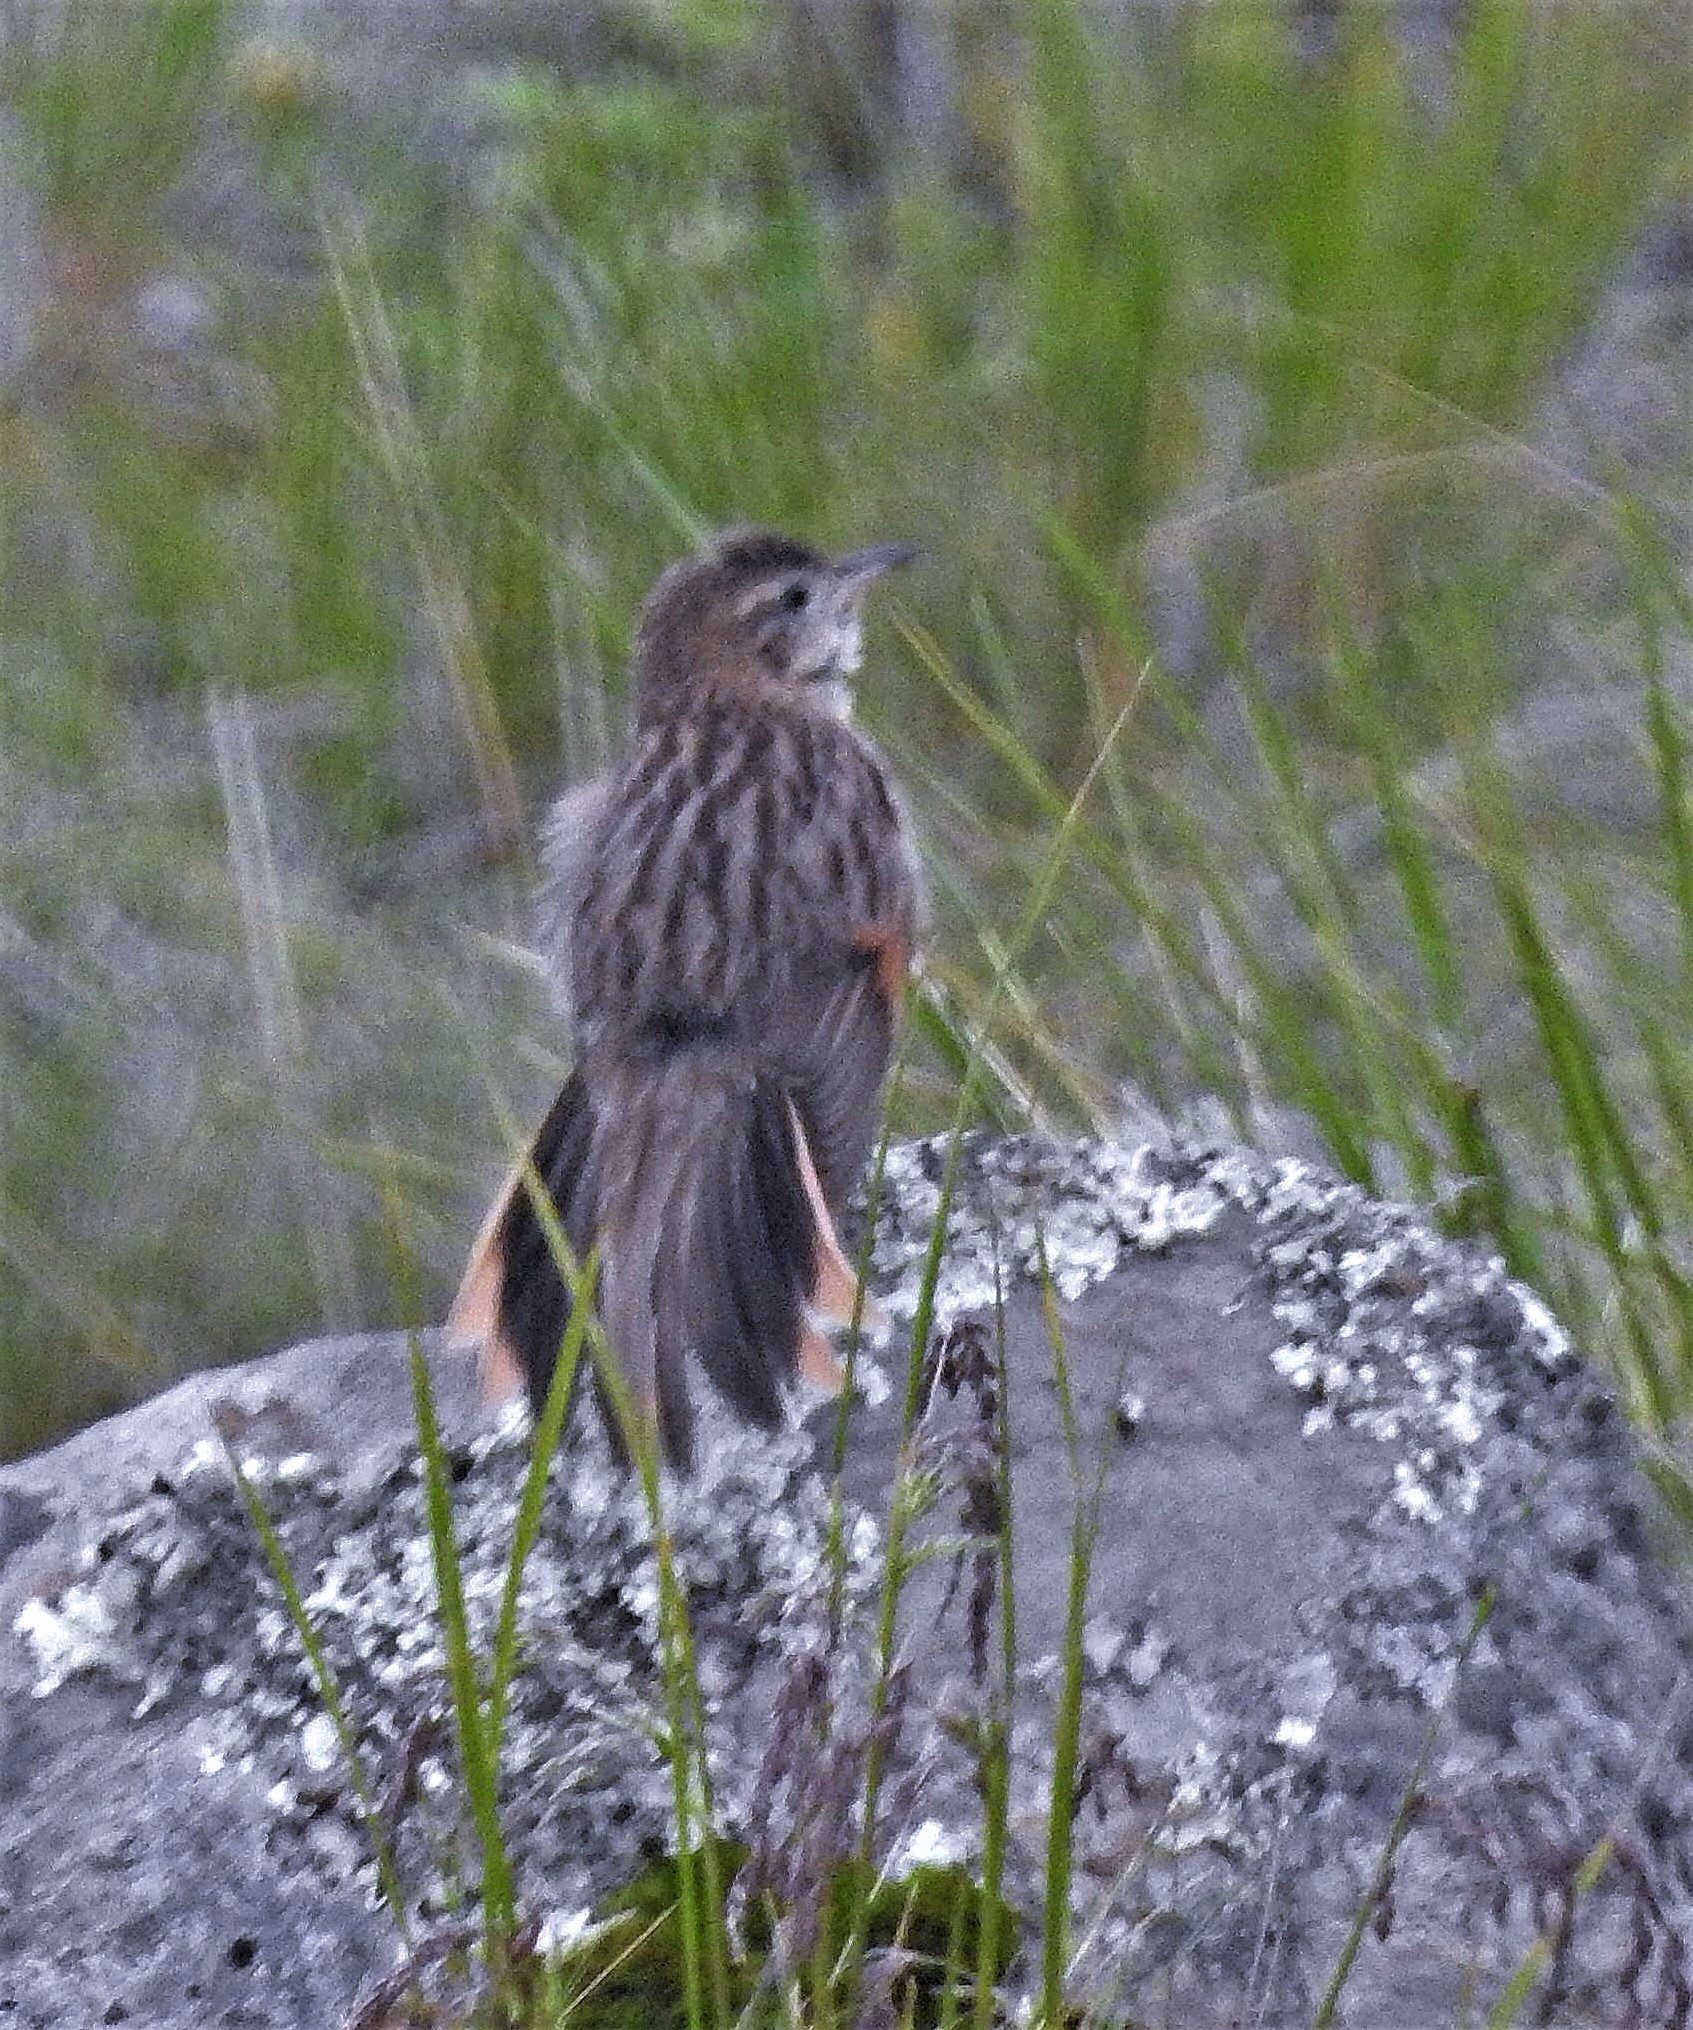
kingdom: Animalia
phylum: Chordata
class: Aves
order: Passeriformes
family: Furnariidae
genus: Asthenes
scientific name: Asthenes wyatti
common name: Streak-backed canastero
